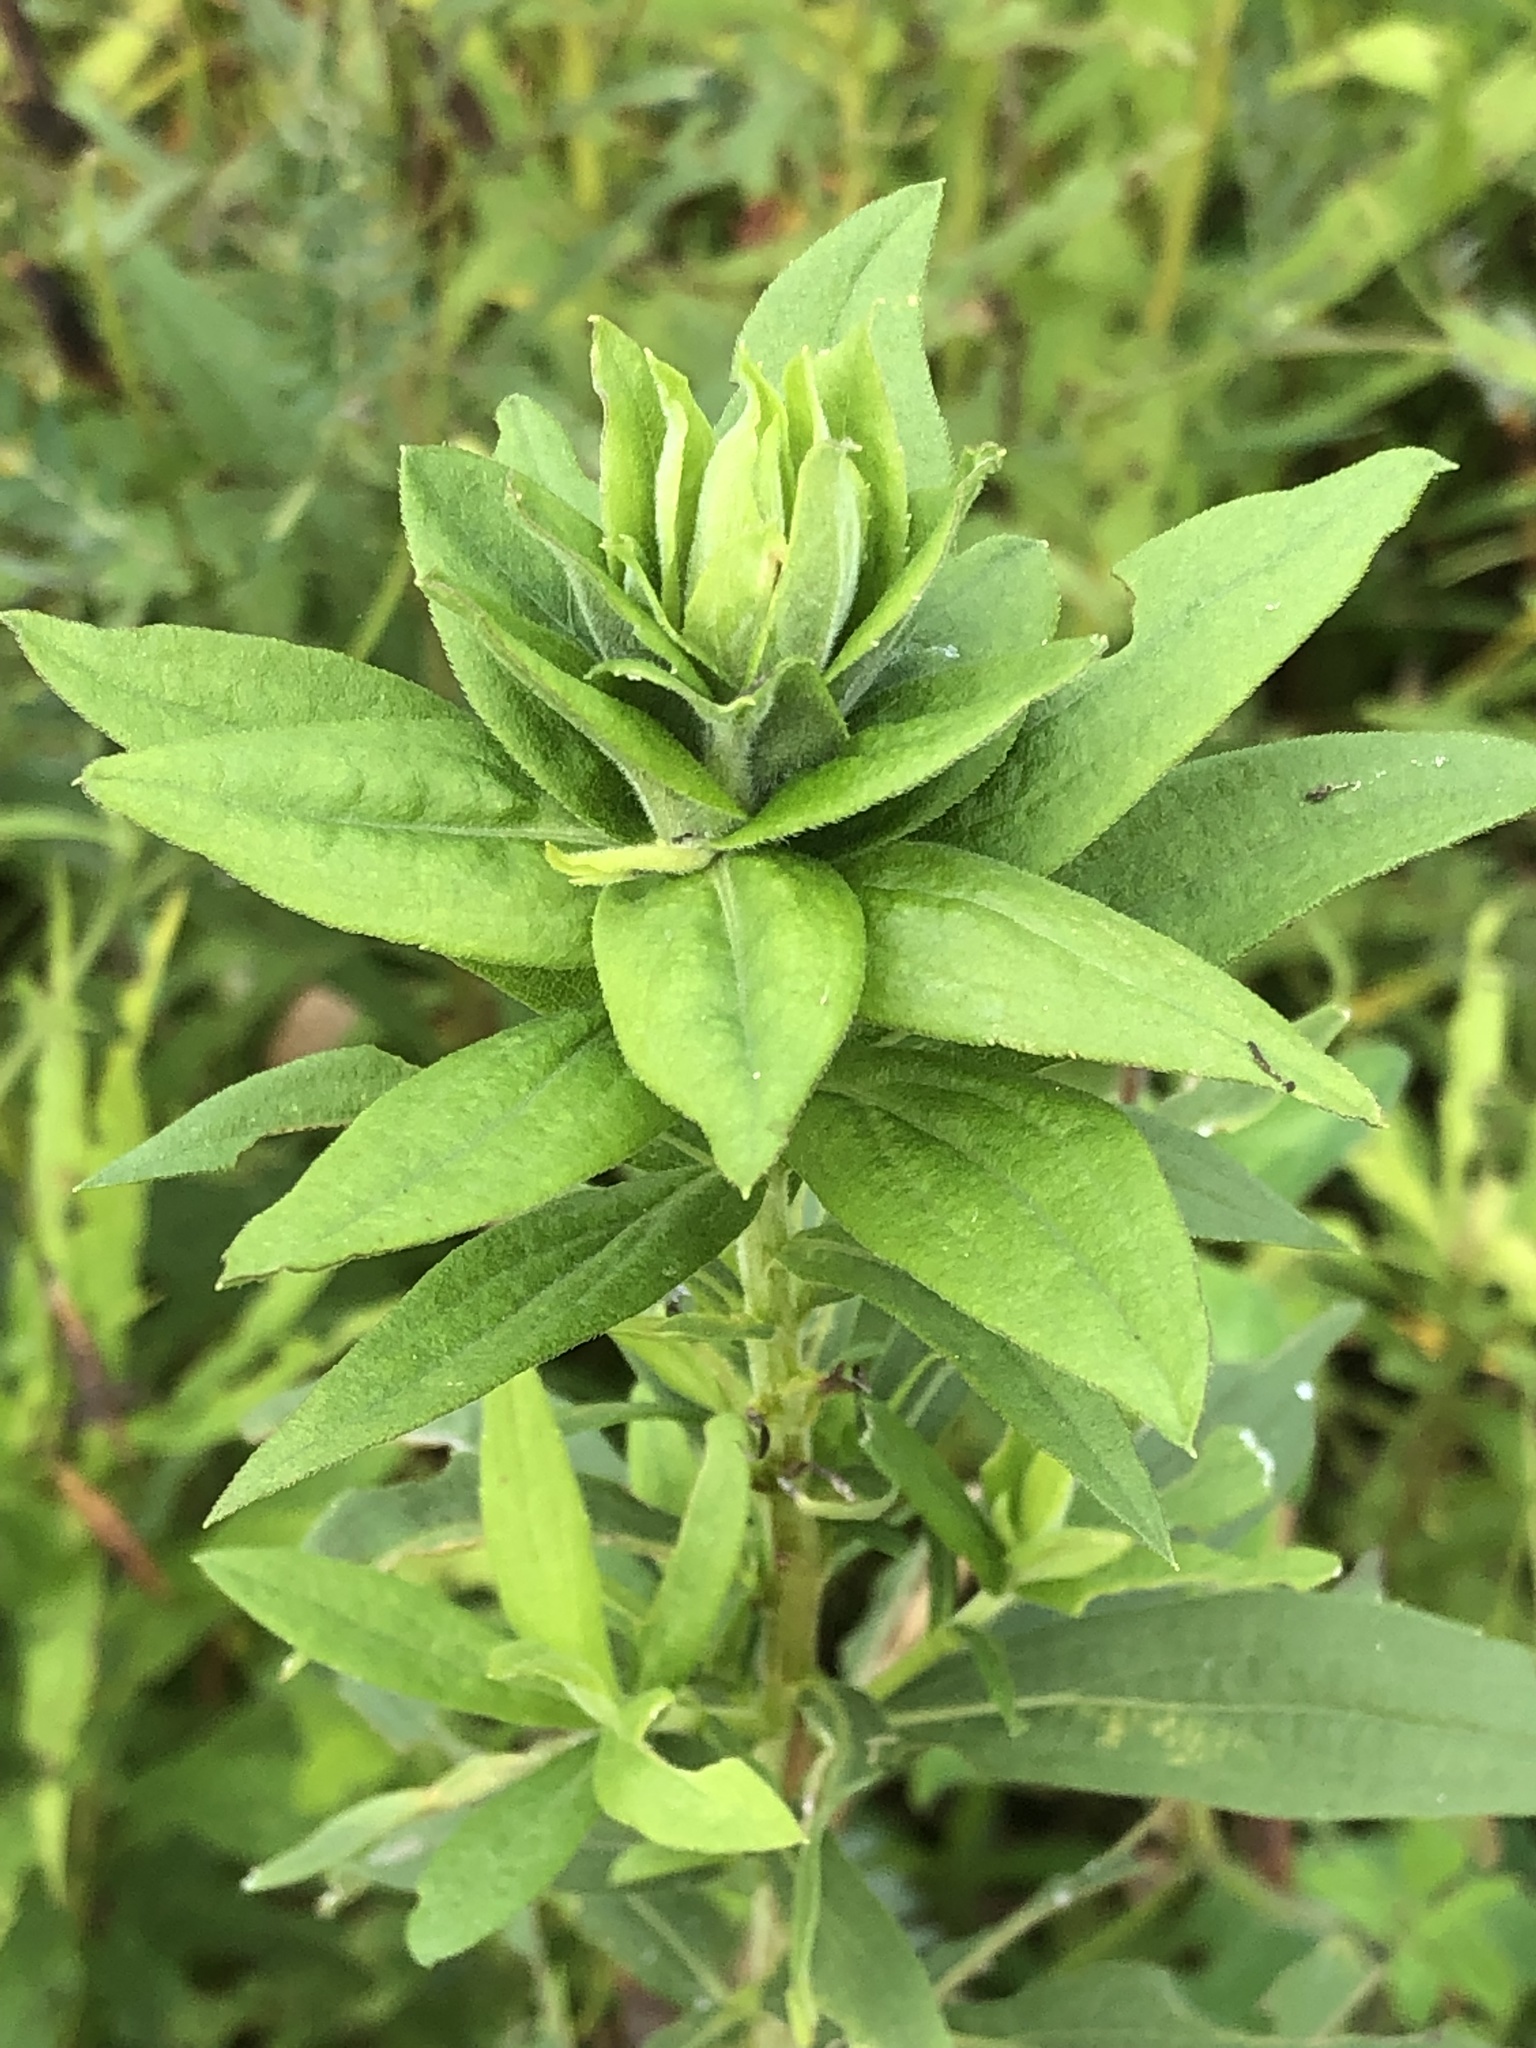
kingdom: Animalia
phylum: Arthropoda
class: Insecta
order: Diptera
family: Cecidomyiidae
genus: Rhopalomyia
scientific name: Rhopalomyia solidaginis
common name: Goldenrod bunch gall midge
